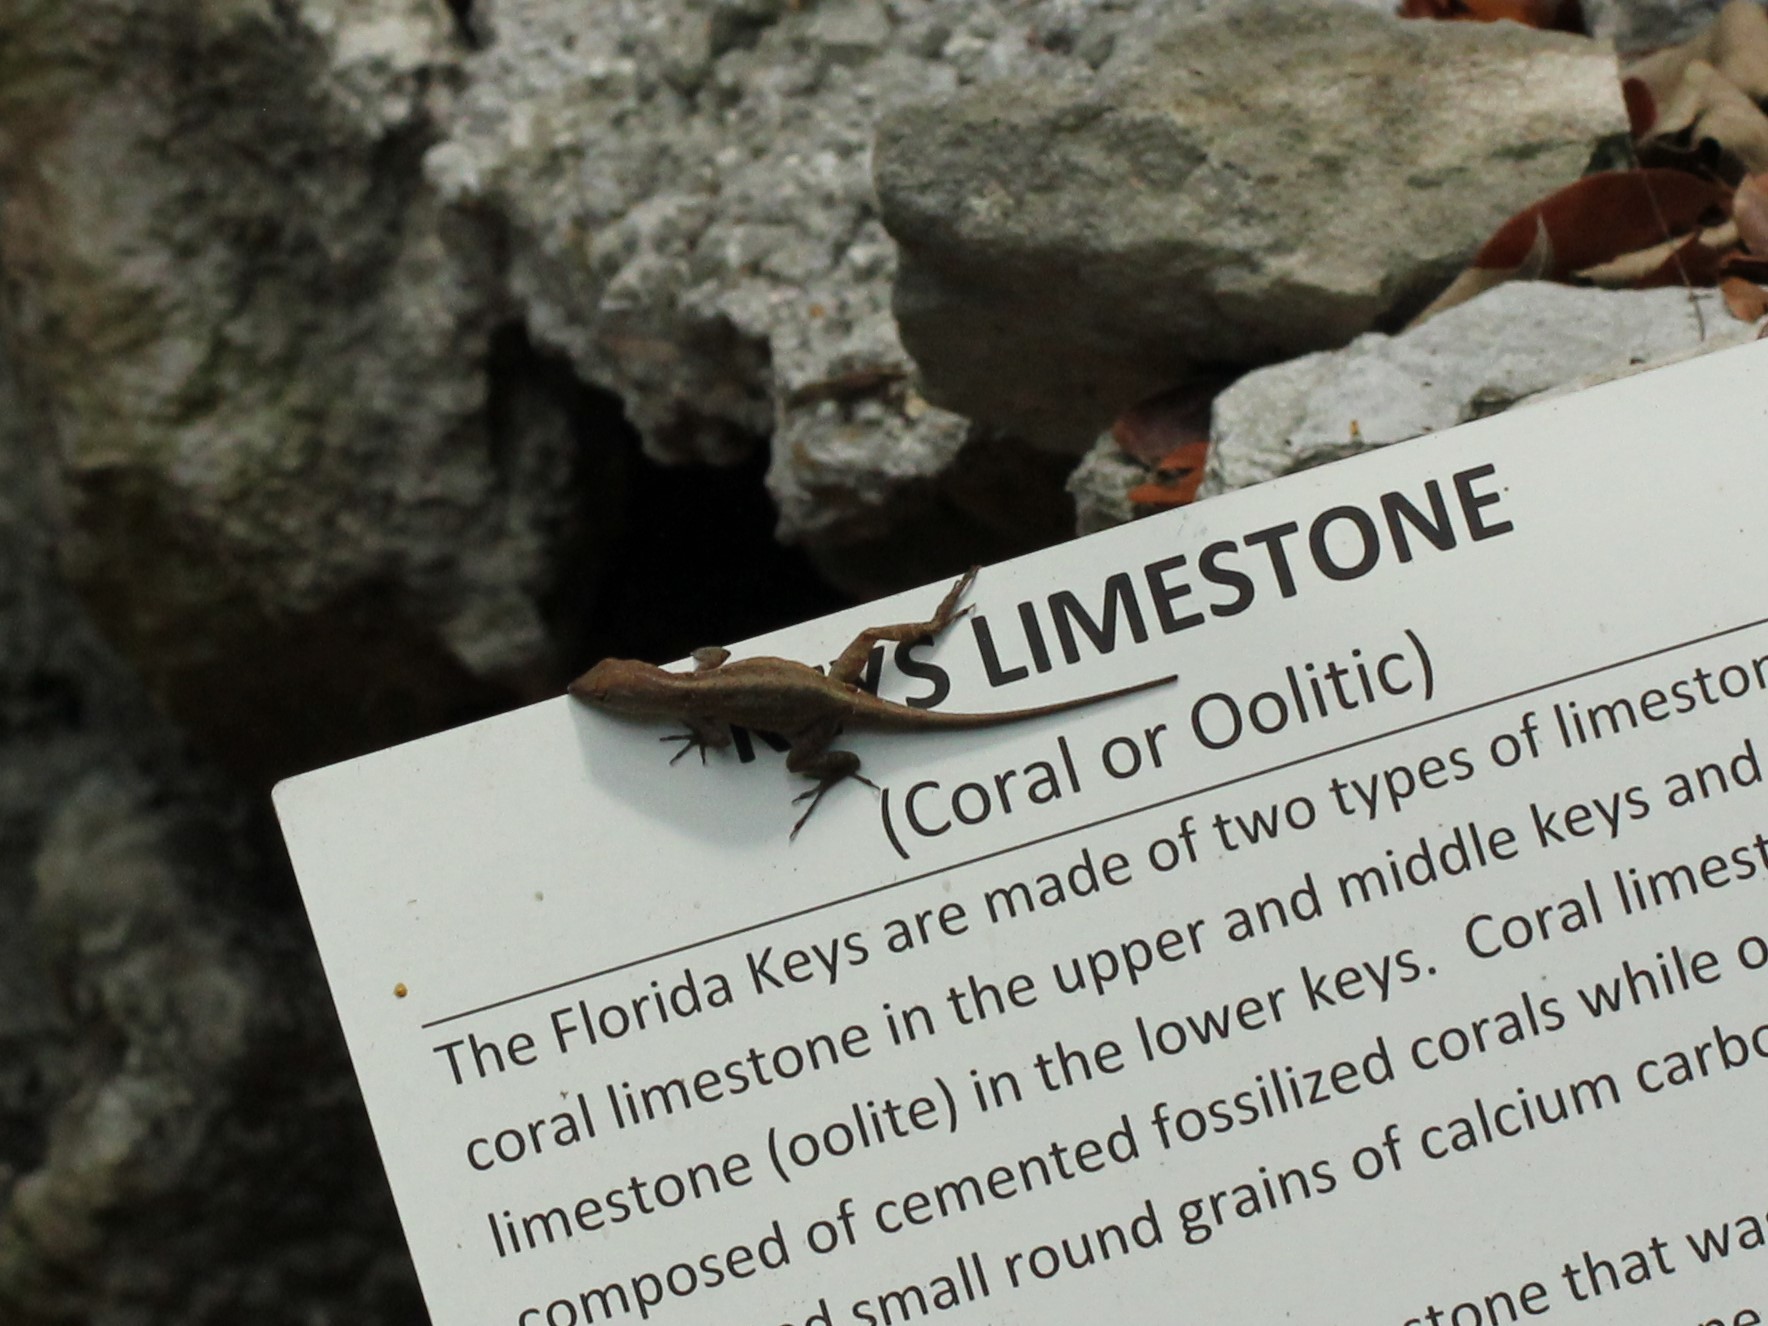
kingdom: Animalia
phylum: Chordata
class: Squamata
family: Dactyloidae
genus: Anolis
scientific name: Anolis sagrei
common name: Brown anole
